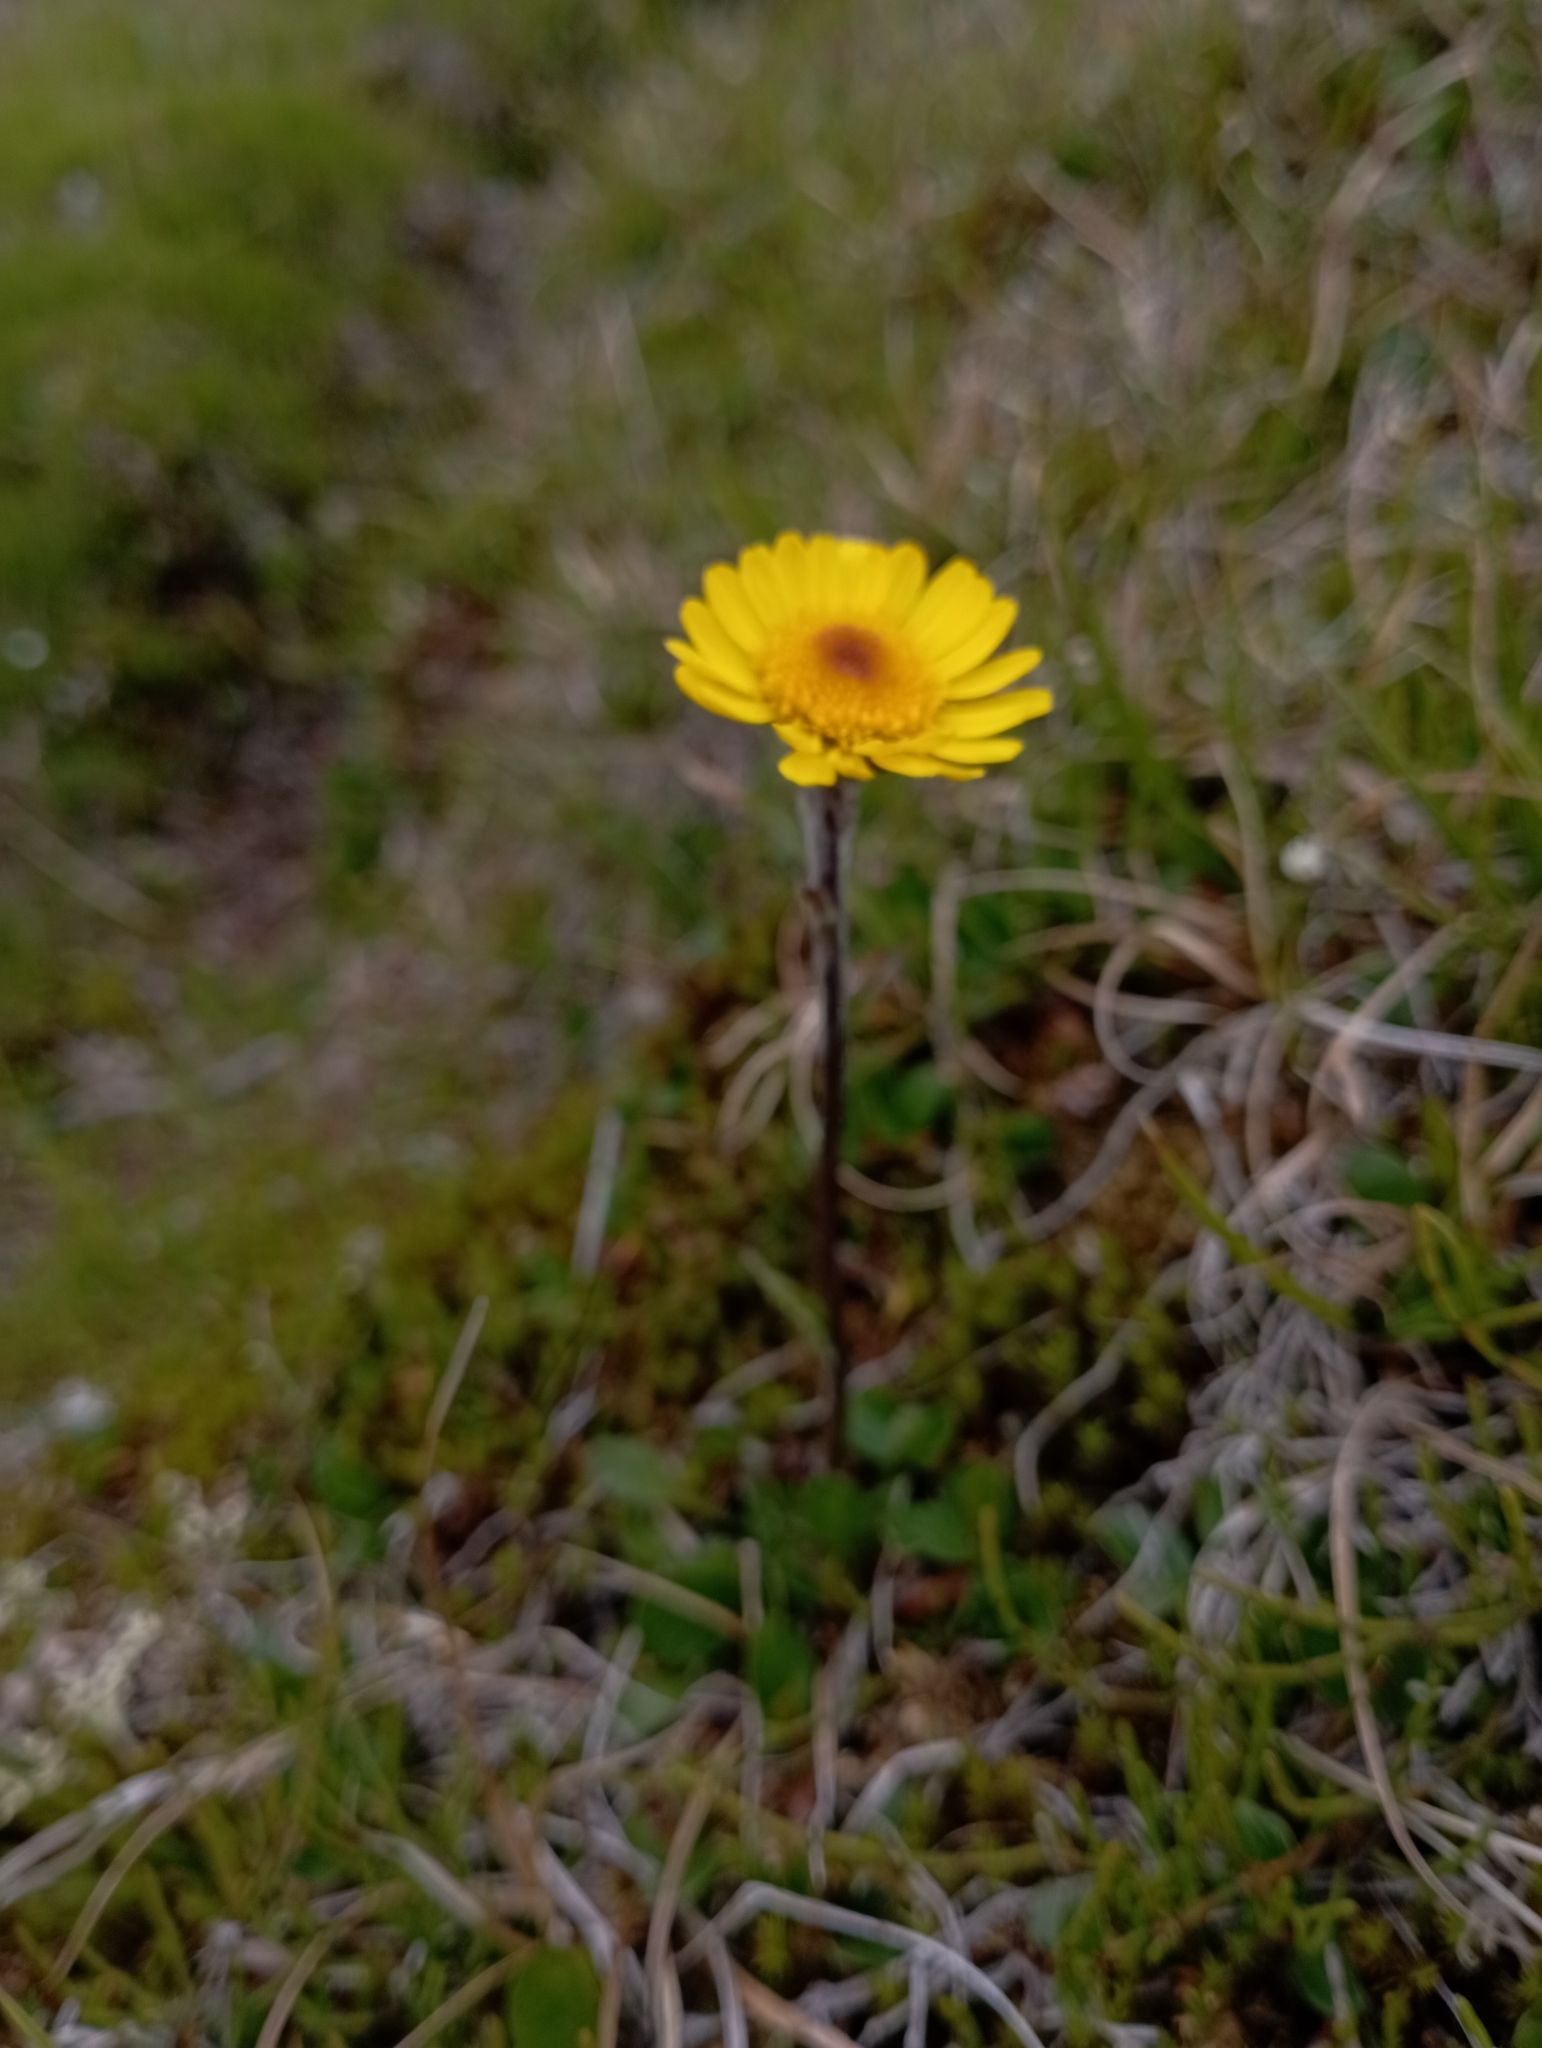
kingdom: Plantae
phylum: Tracheophyta
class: Magnoliopsida
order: Asterales
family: Asteraceae
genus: Tephroseris
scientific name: Tephroseris integrifolia
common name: Field fleawort
